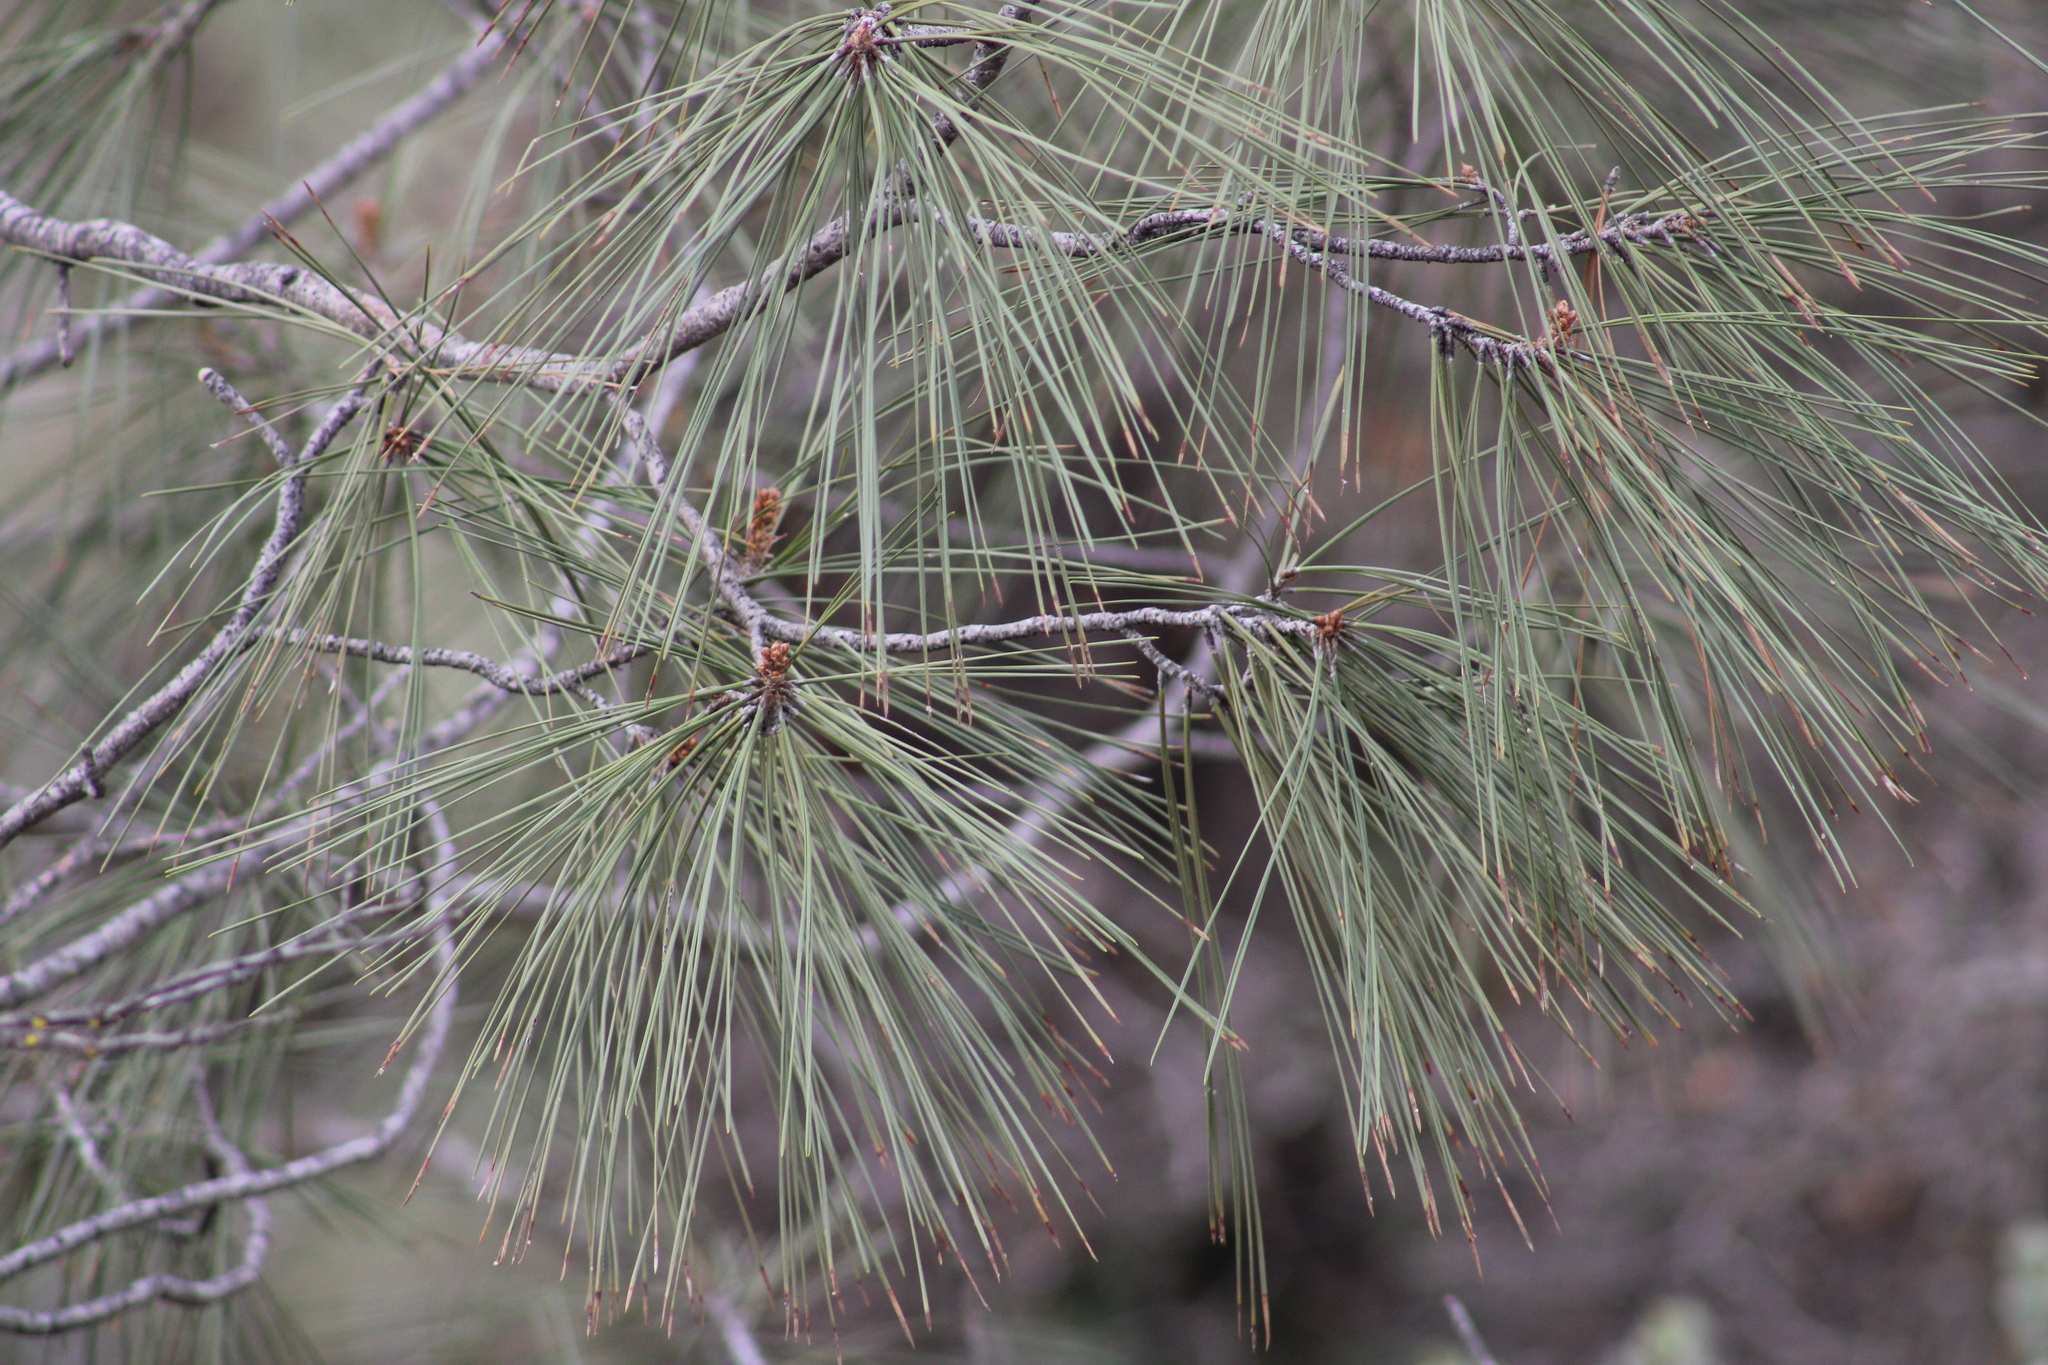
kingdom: Plantae
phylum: Tracheophyta
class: Pinopsida
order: Pinales
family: Pinaceae
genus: Pinus
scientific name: Pinus sabiniana
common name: Bull pine
